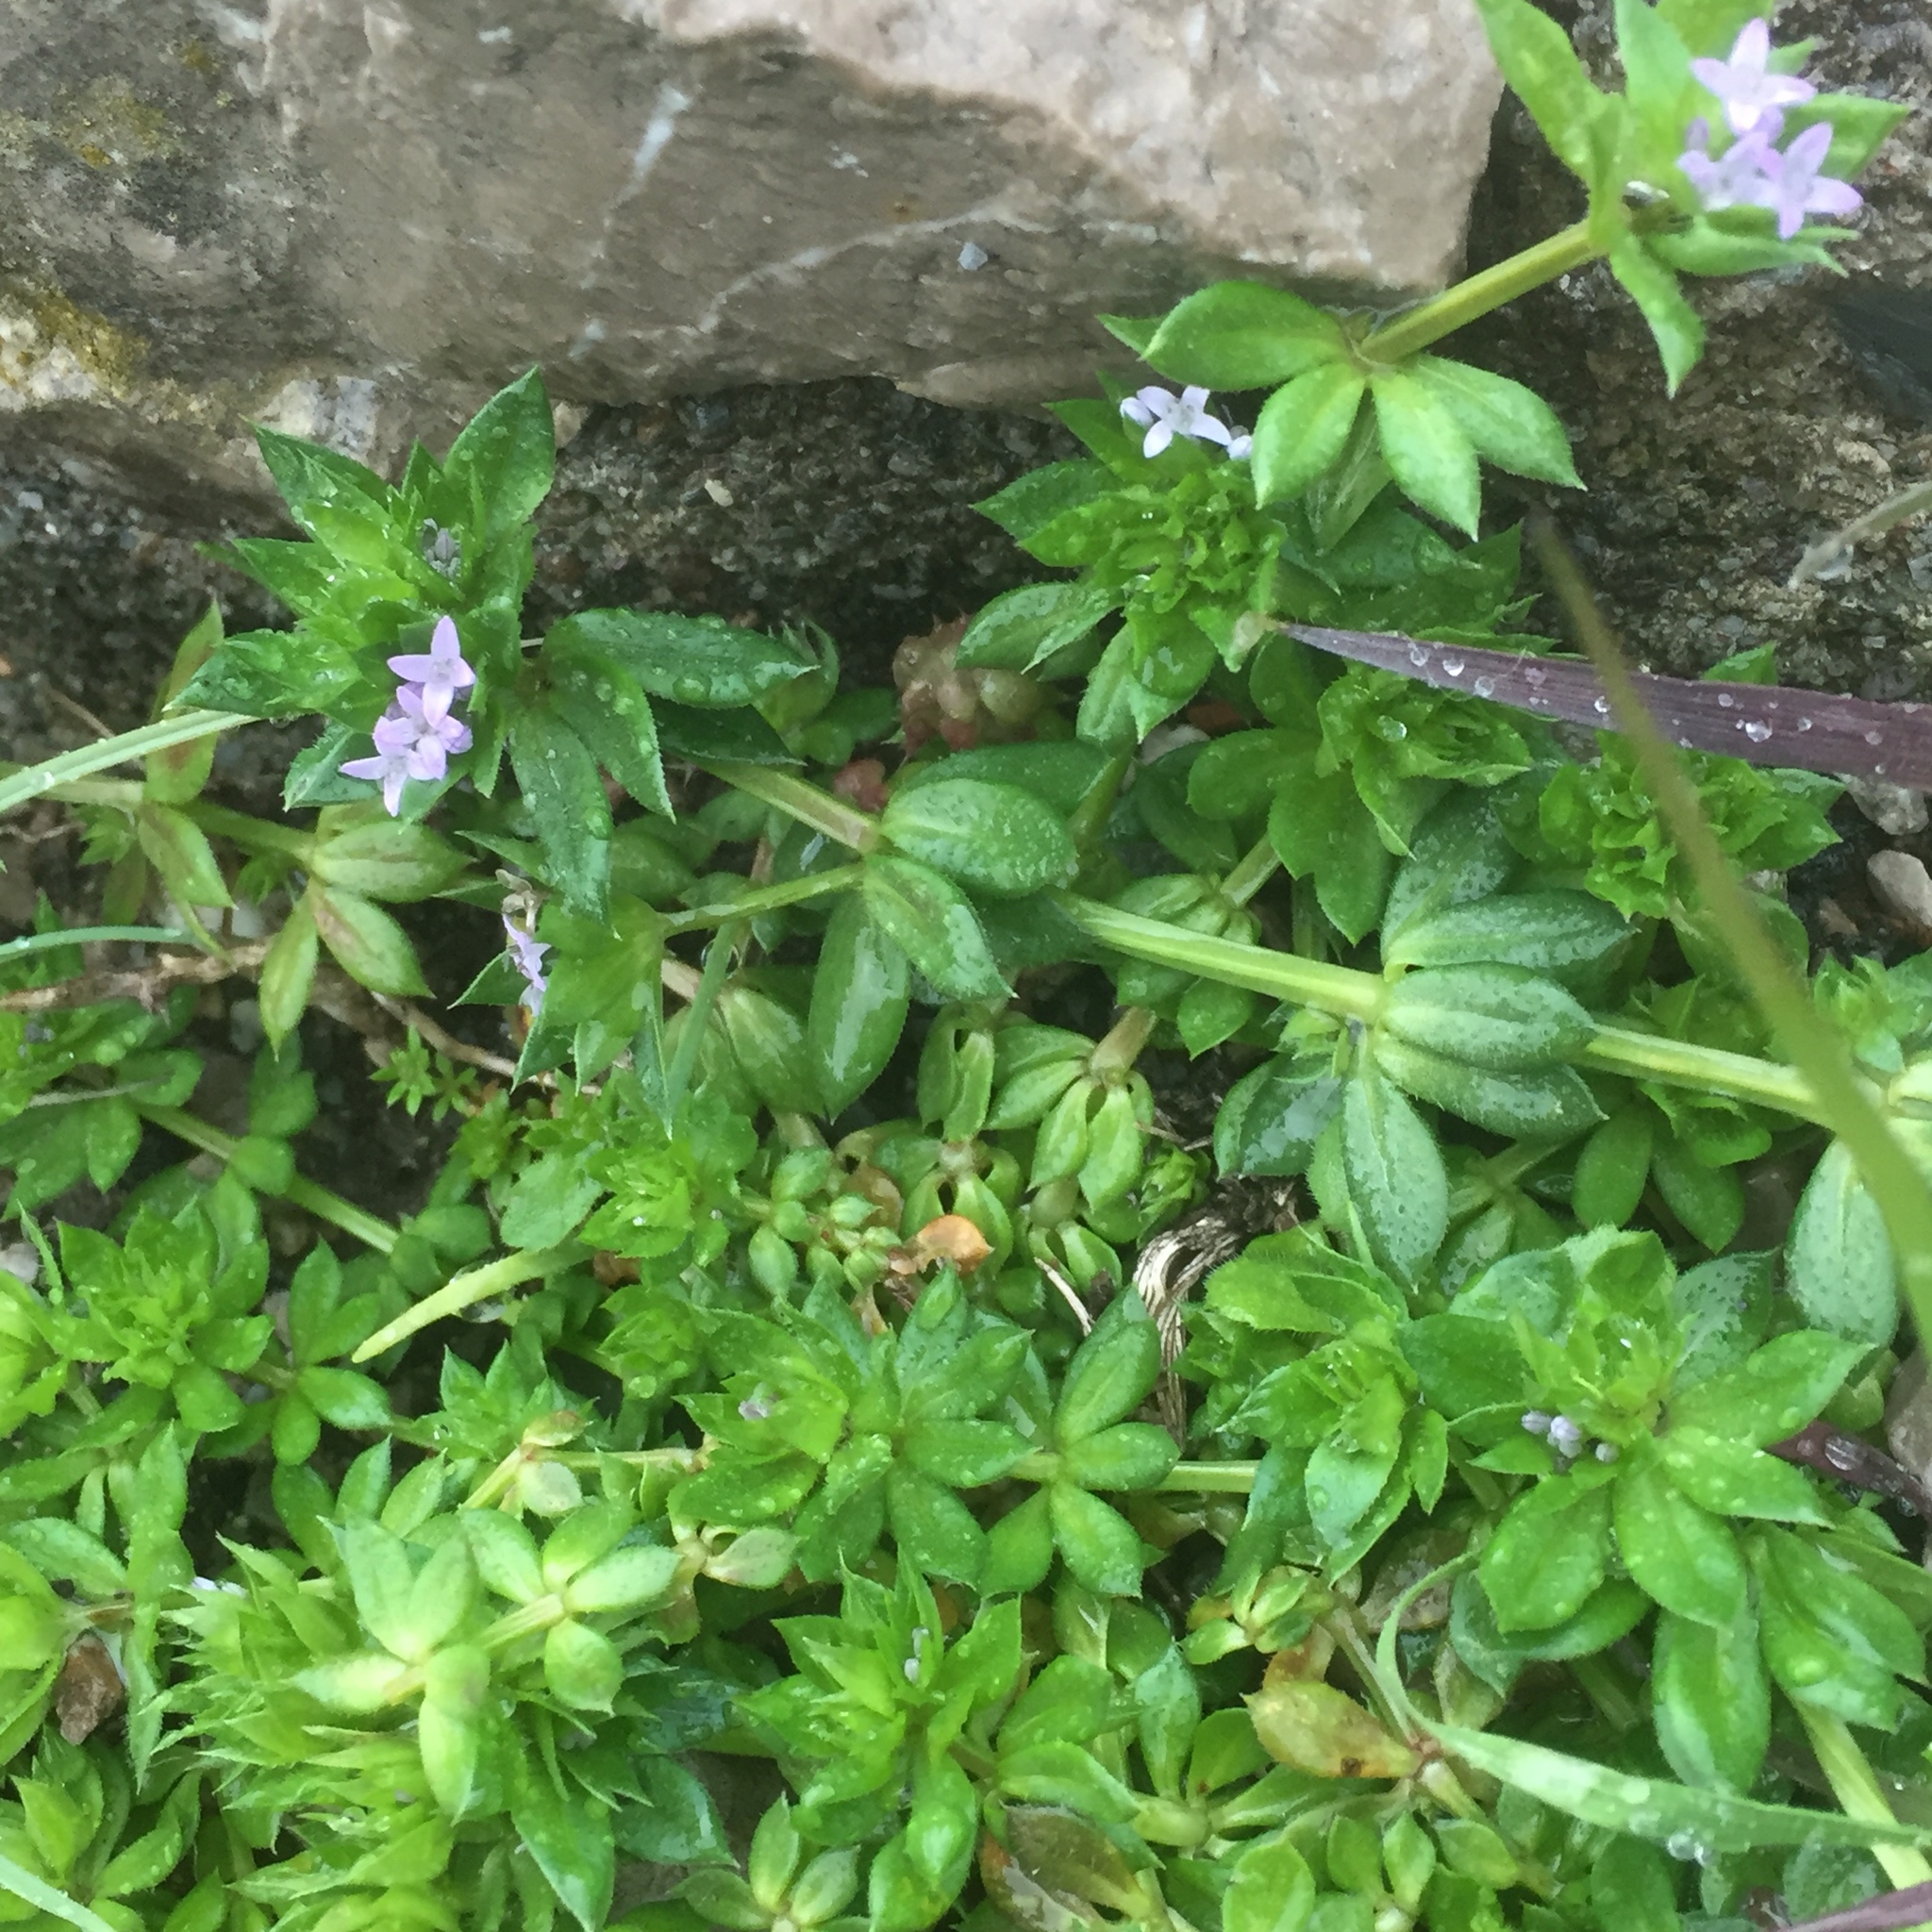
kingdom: Plantae
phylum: Tracheophyta
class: Magnoliopsida
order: Gentianales
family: Rubiaceae
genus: Sherardia
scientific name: Sherardia arvensis
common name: Field madder
